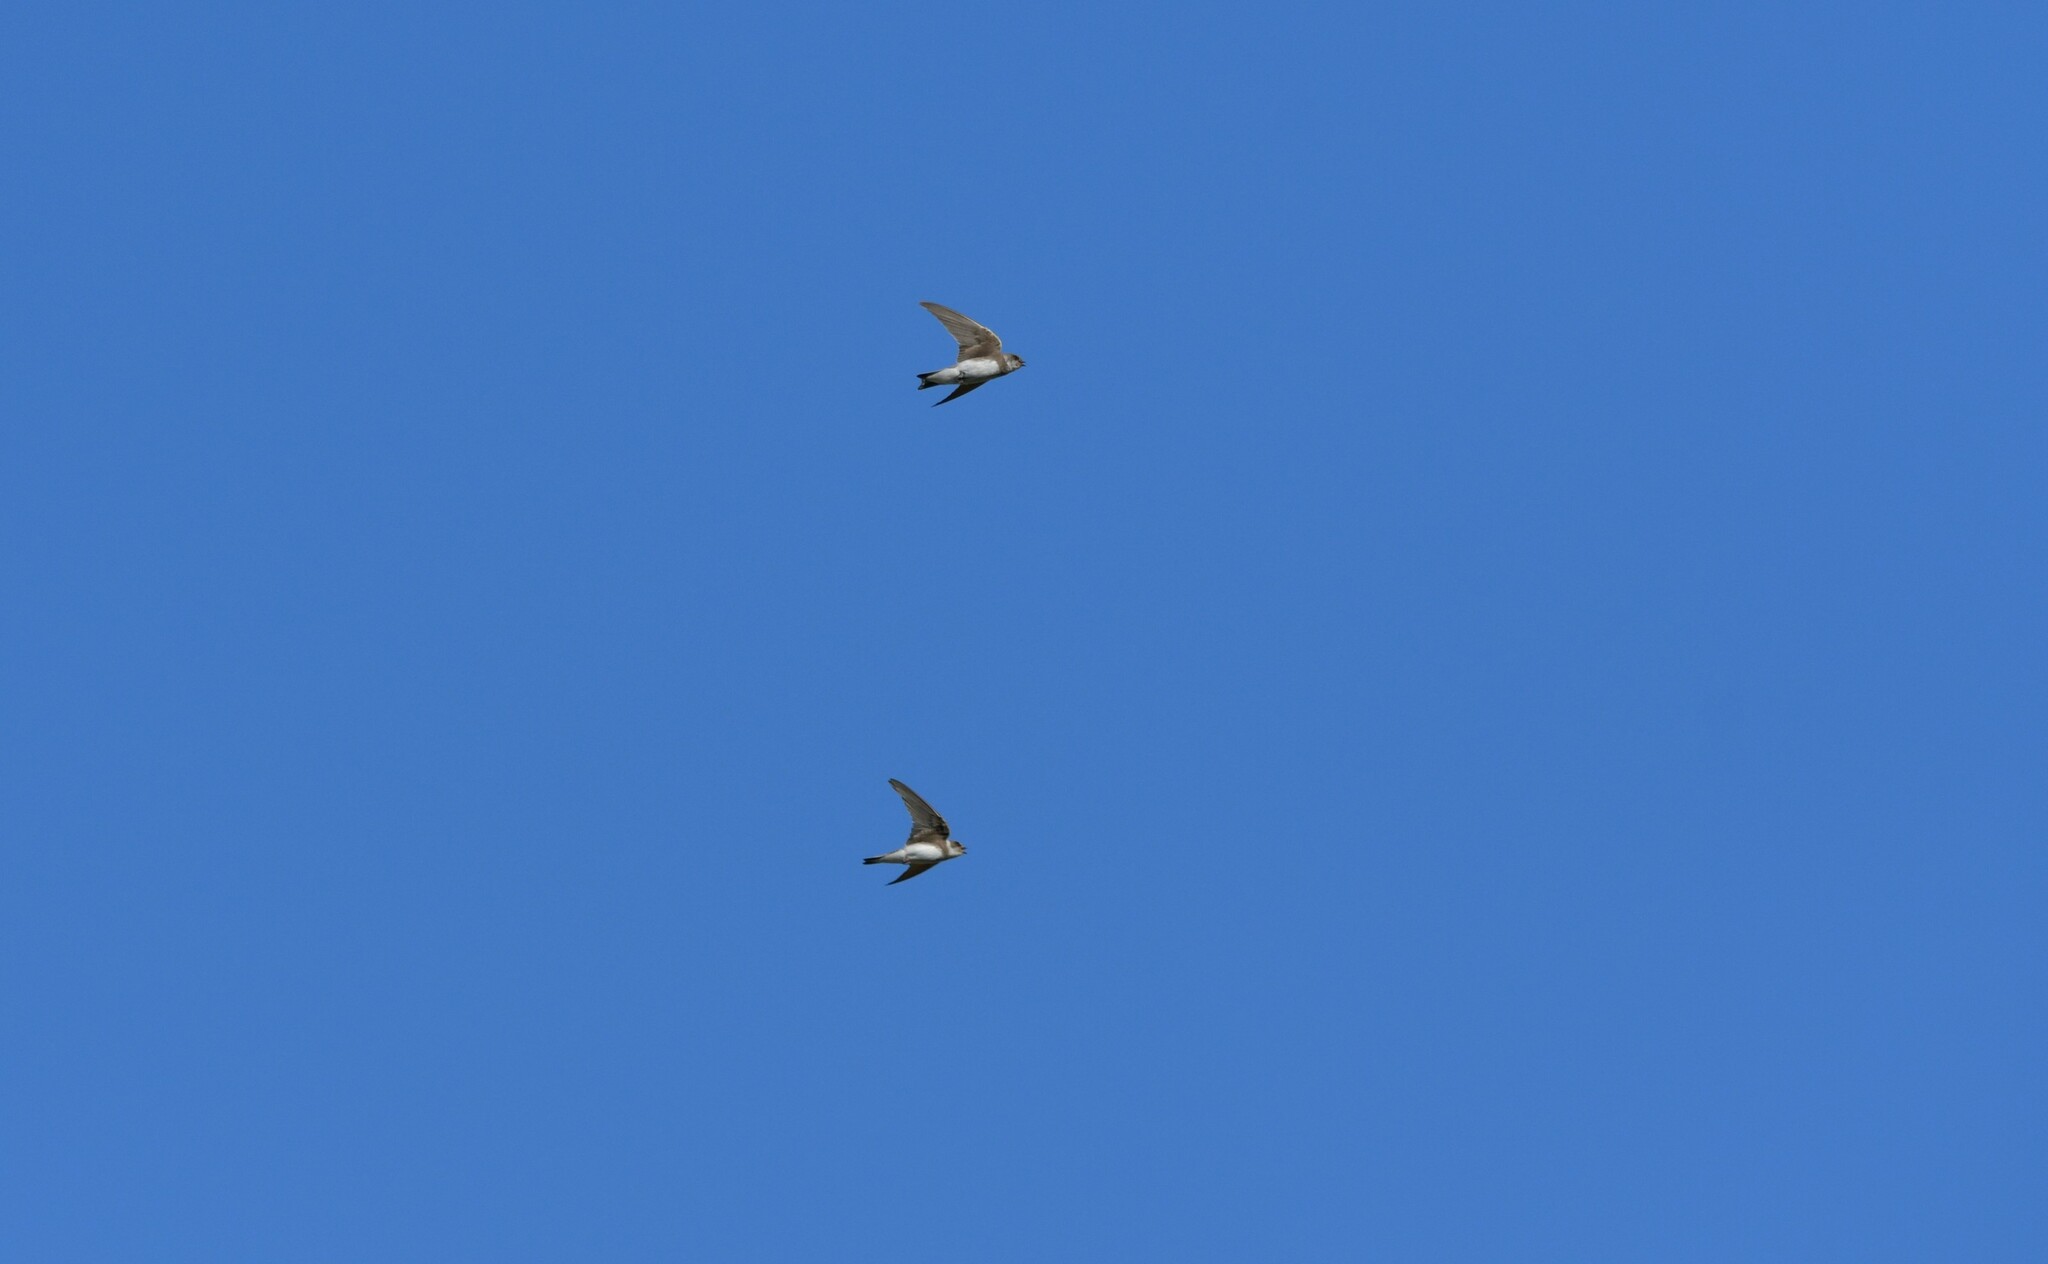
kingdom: Animalia
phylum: Chordata
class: Aves
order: Passeriformes
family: Hirundinidae
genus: Riparia
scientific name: Riparia riparia
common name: Sand martin
